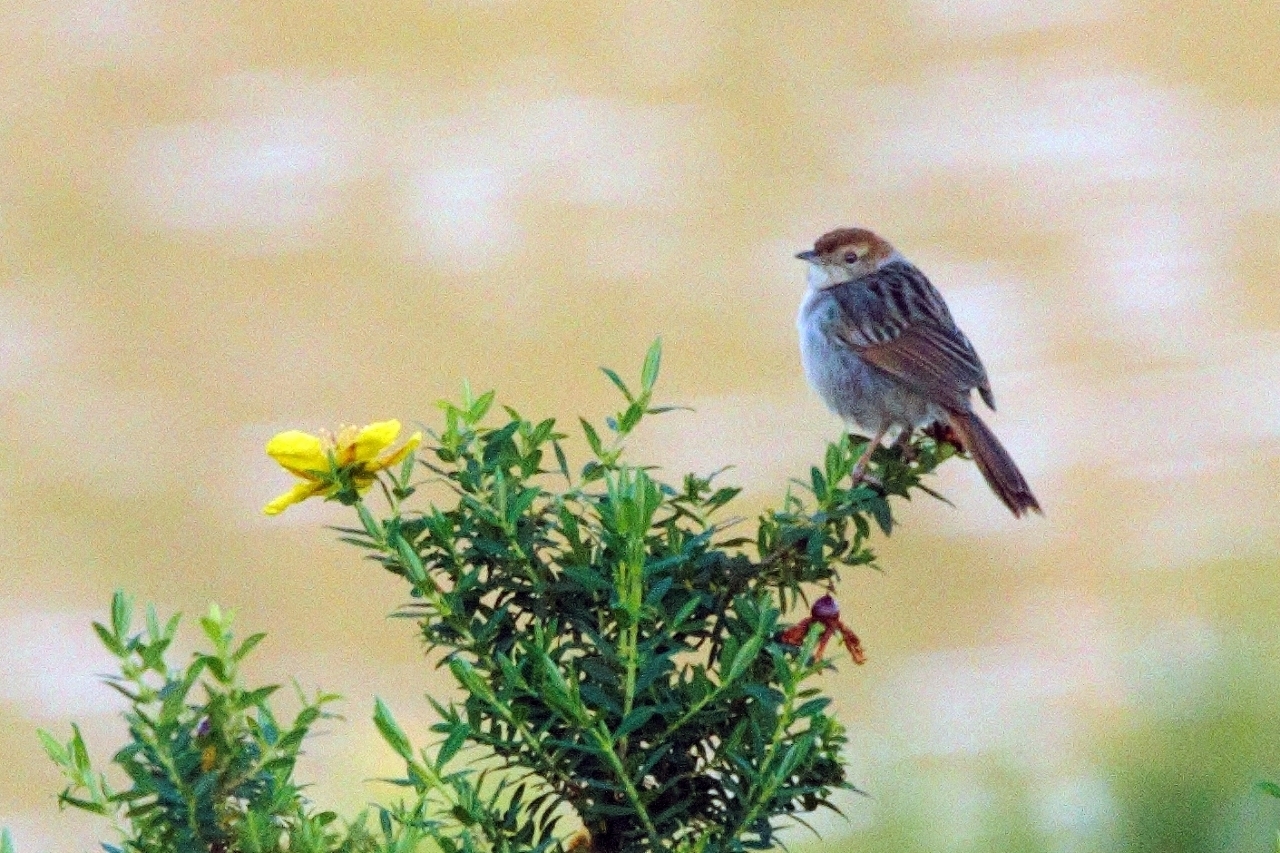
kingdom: Animalia
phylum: Chordata
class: Aves
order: Passeriformes
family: Cisticolidae
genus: Cisticola
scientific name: Cisticola lais
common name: Wailing cisticola
